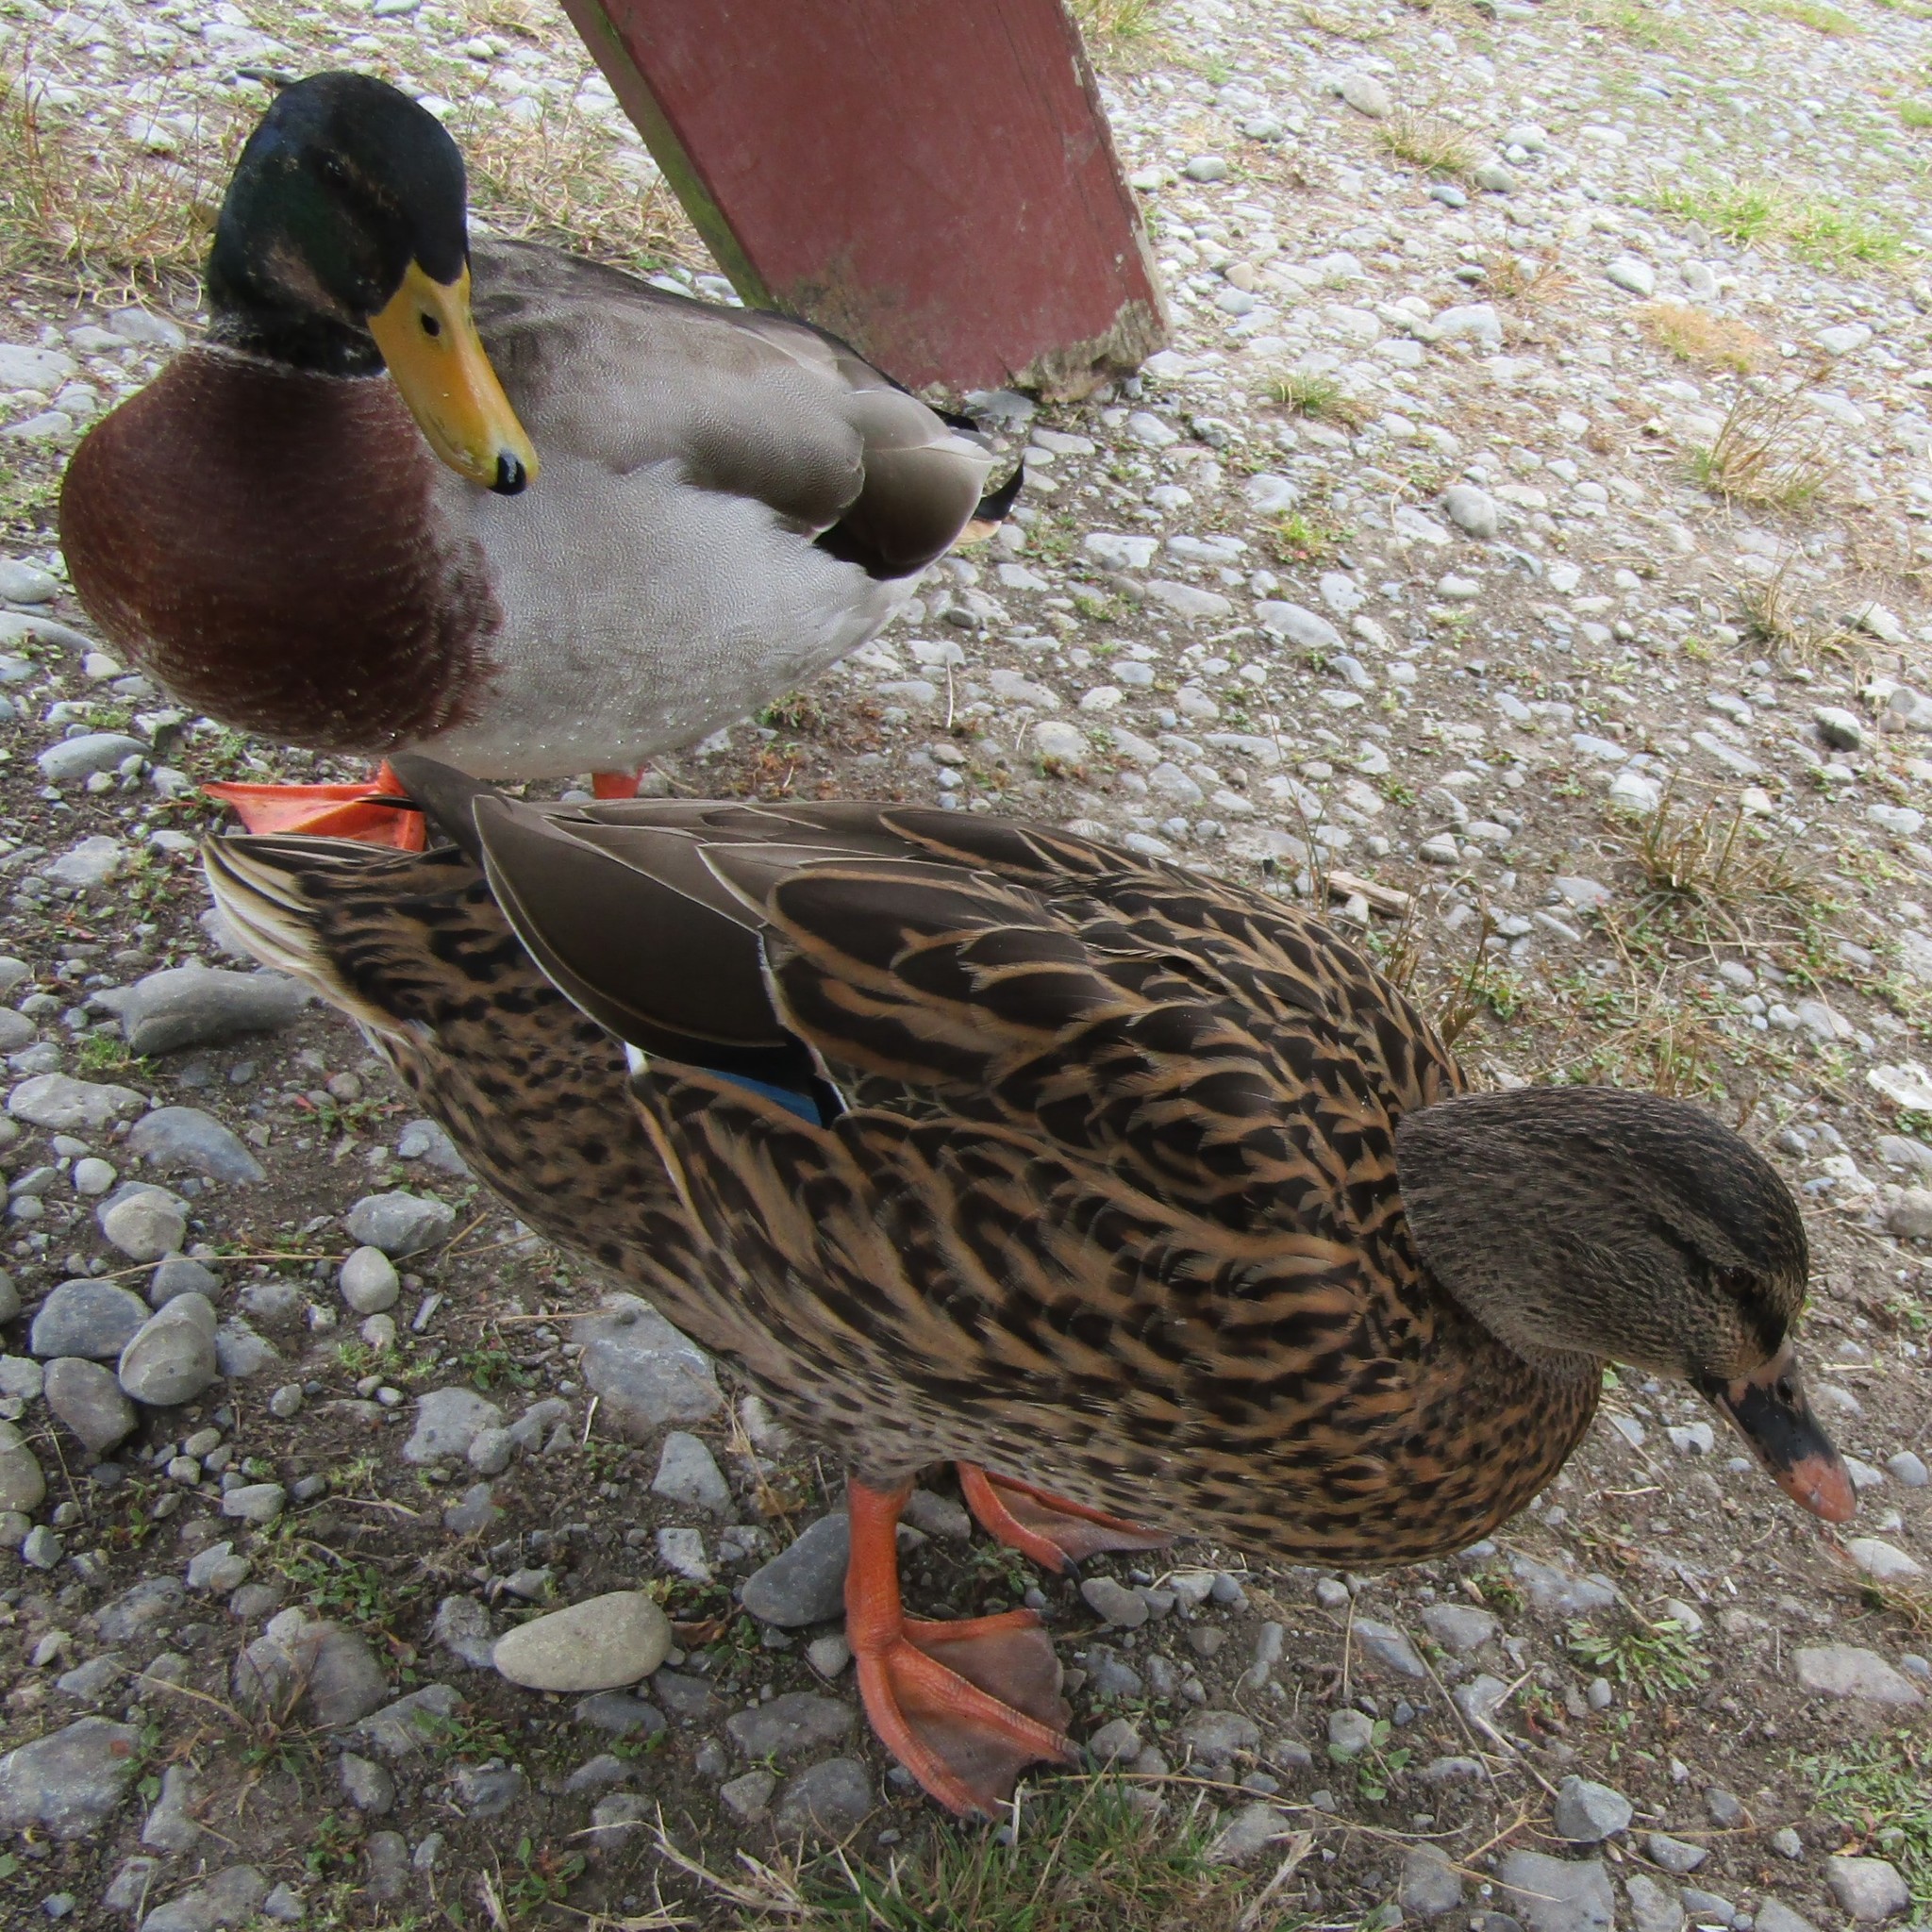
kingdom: Animalia
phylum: Chordata
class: Aves
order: Anseriformes
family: Anatidae
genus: Anas
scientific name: Anas platyrhynchos
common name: Mallard
